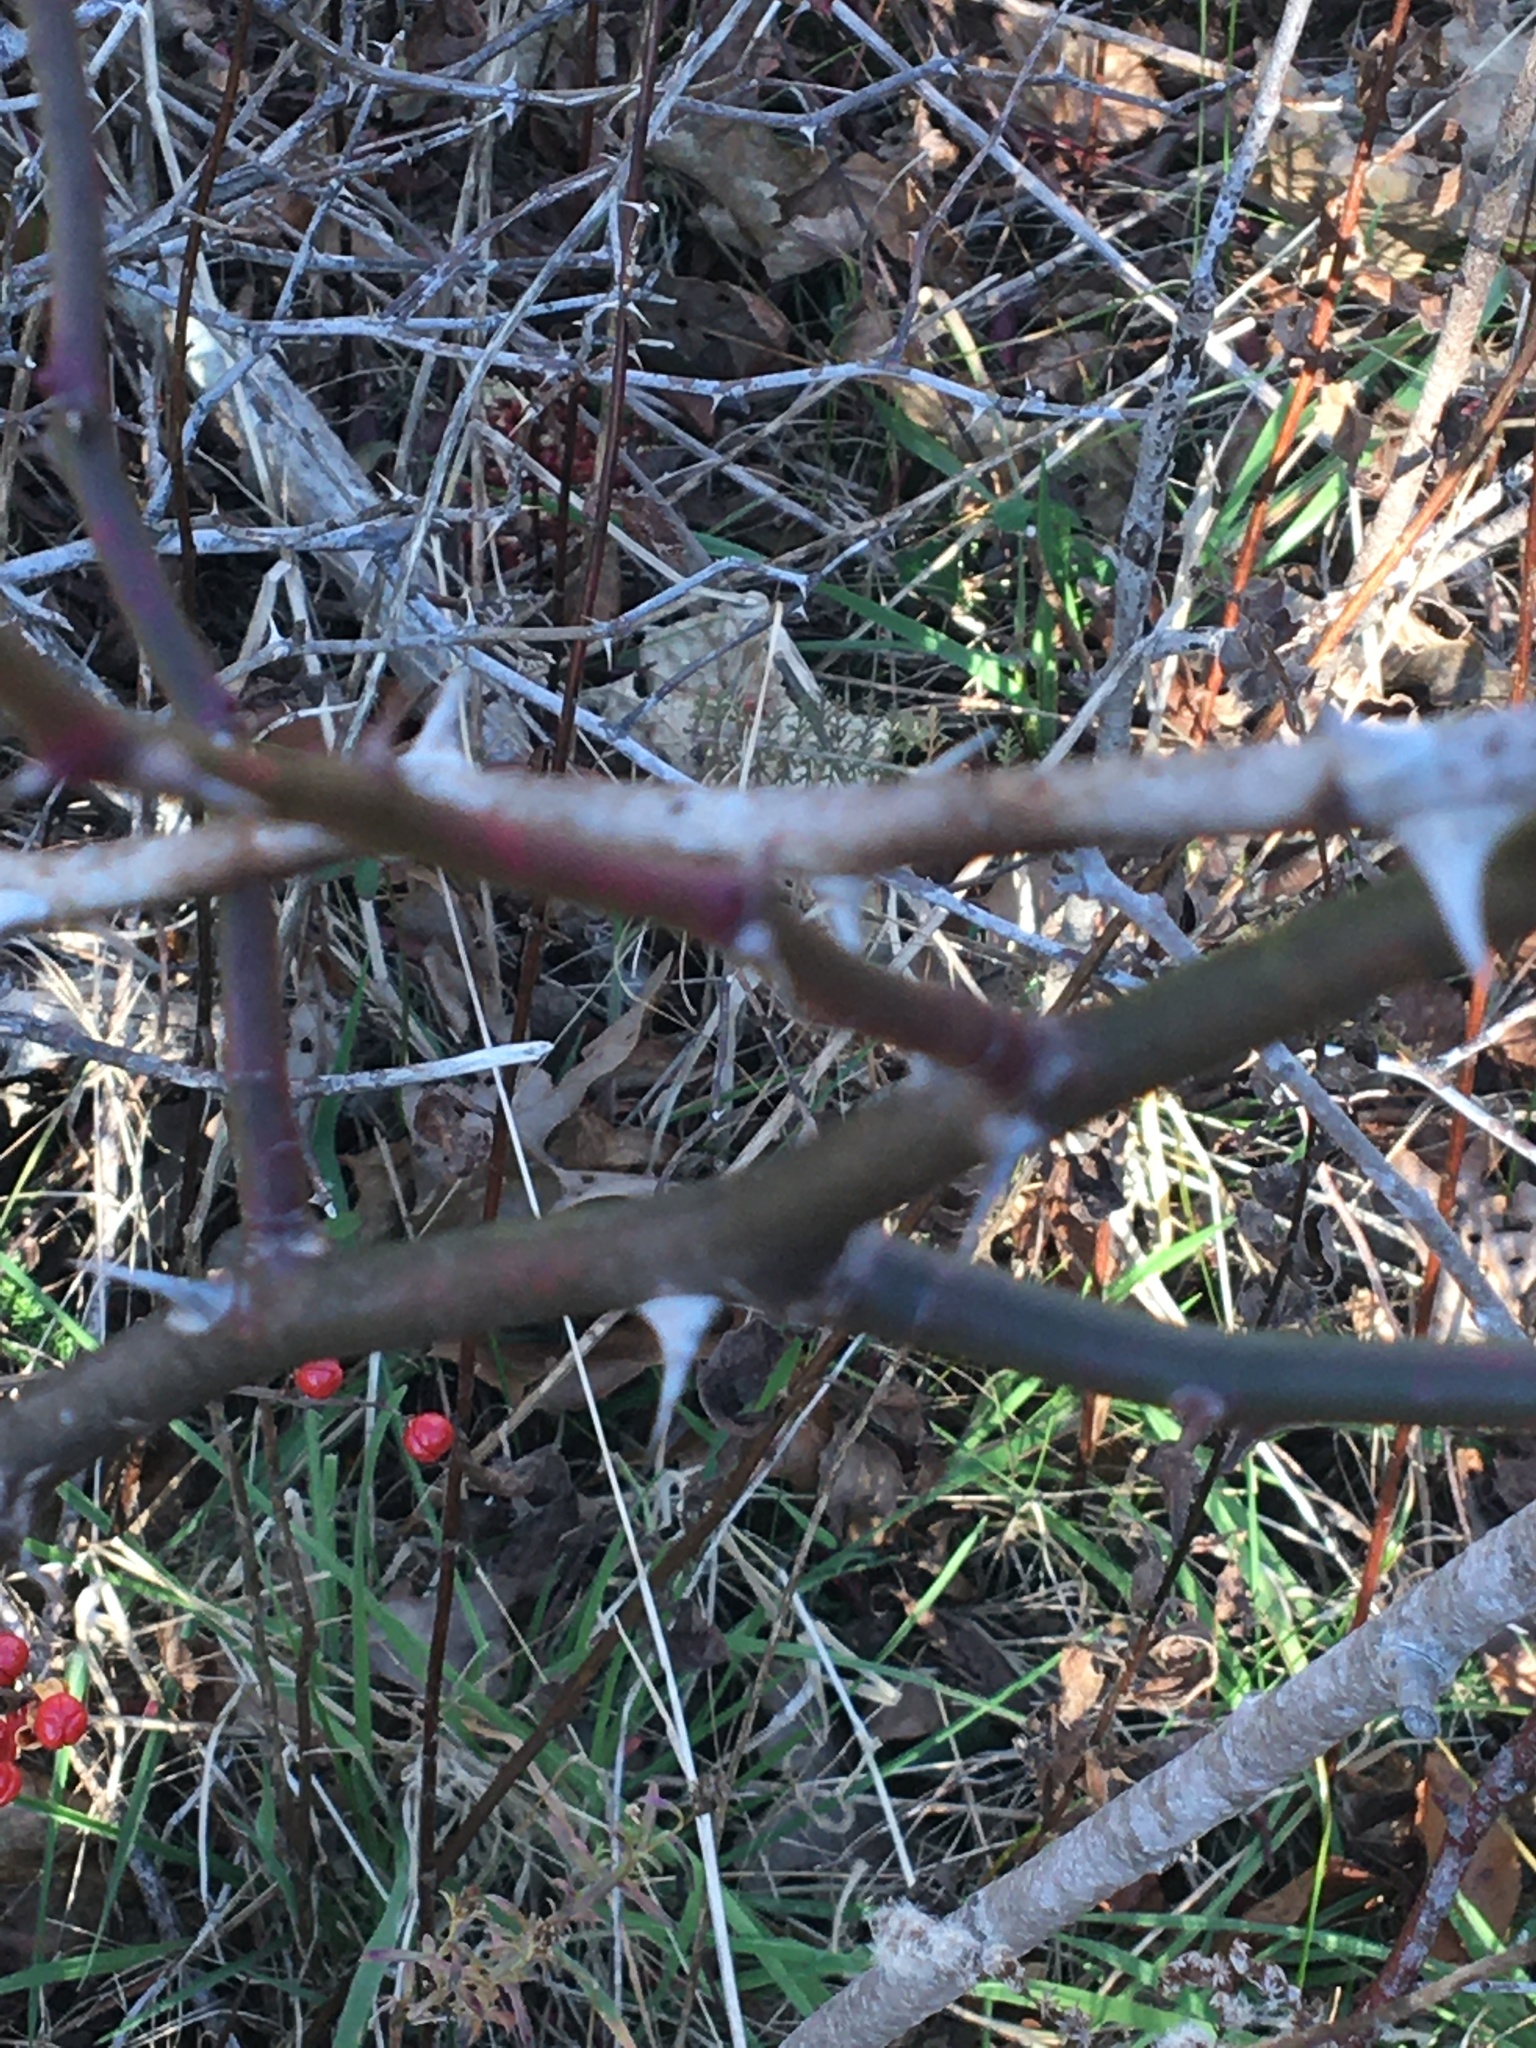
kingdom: Plantae
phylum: Tracheophyta
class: Magnoliopsida
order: Rosales
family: Rosaceae
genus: Rosa
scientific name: Rosa multiflora
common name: Multiflora rose
